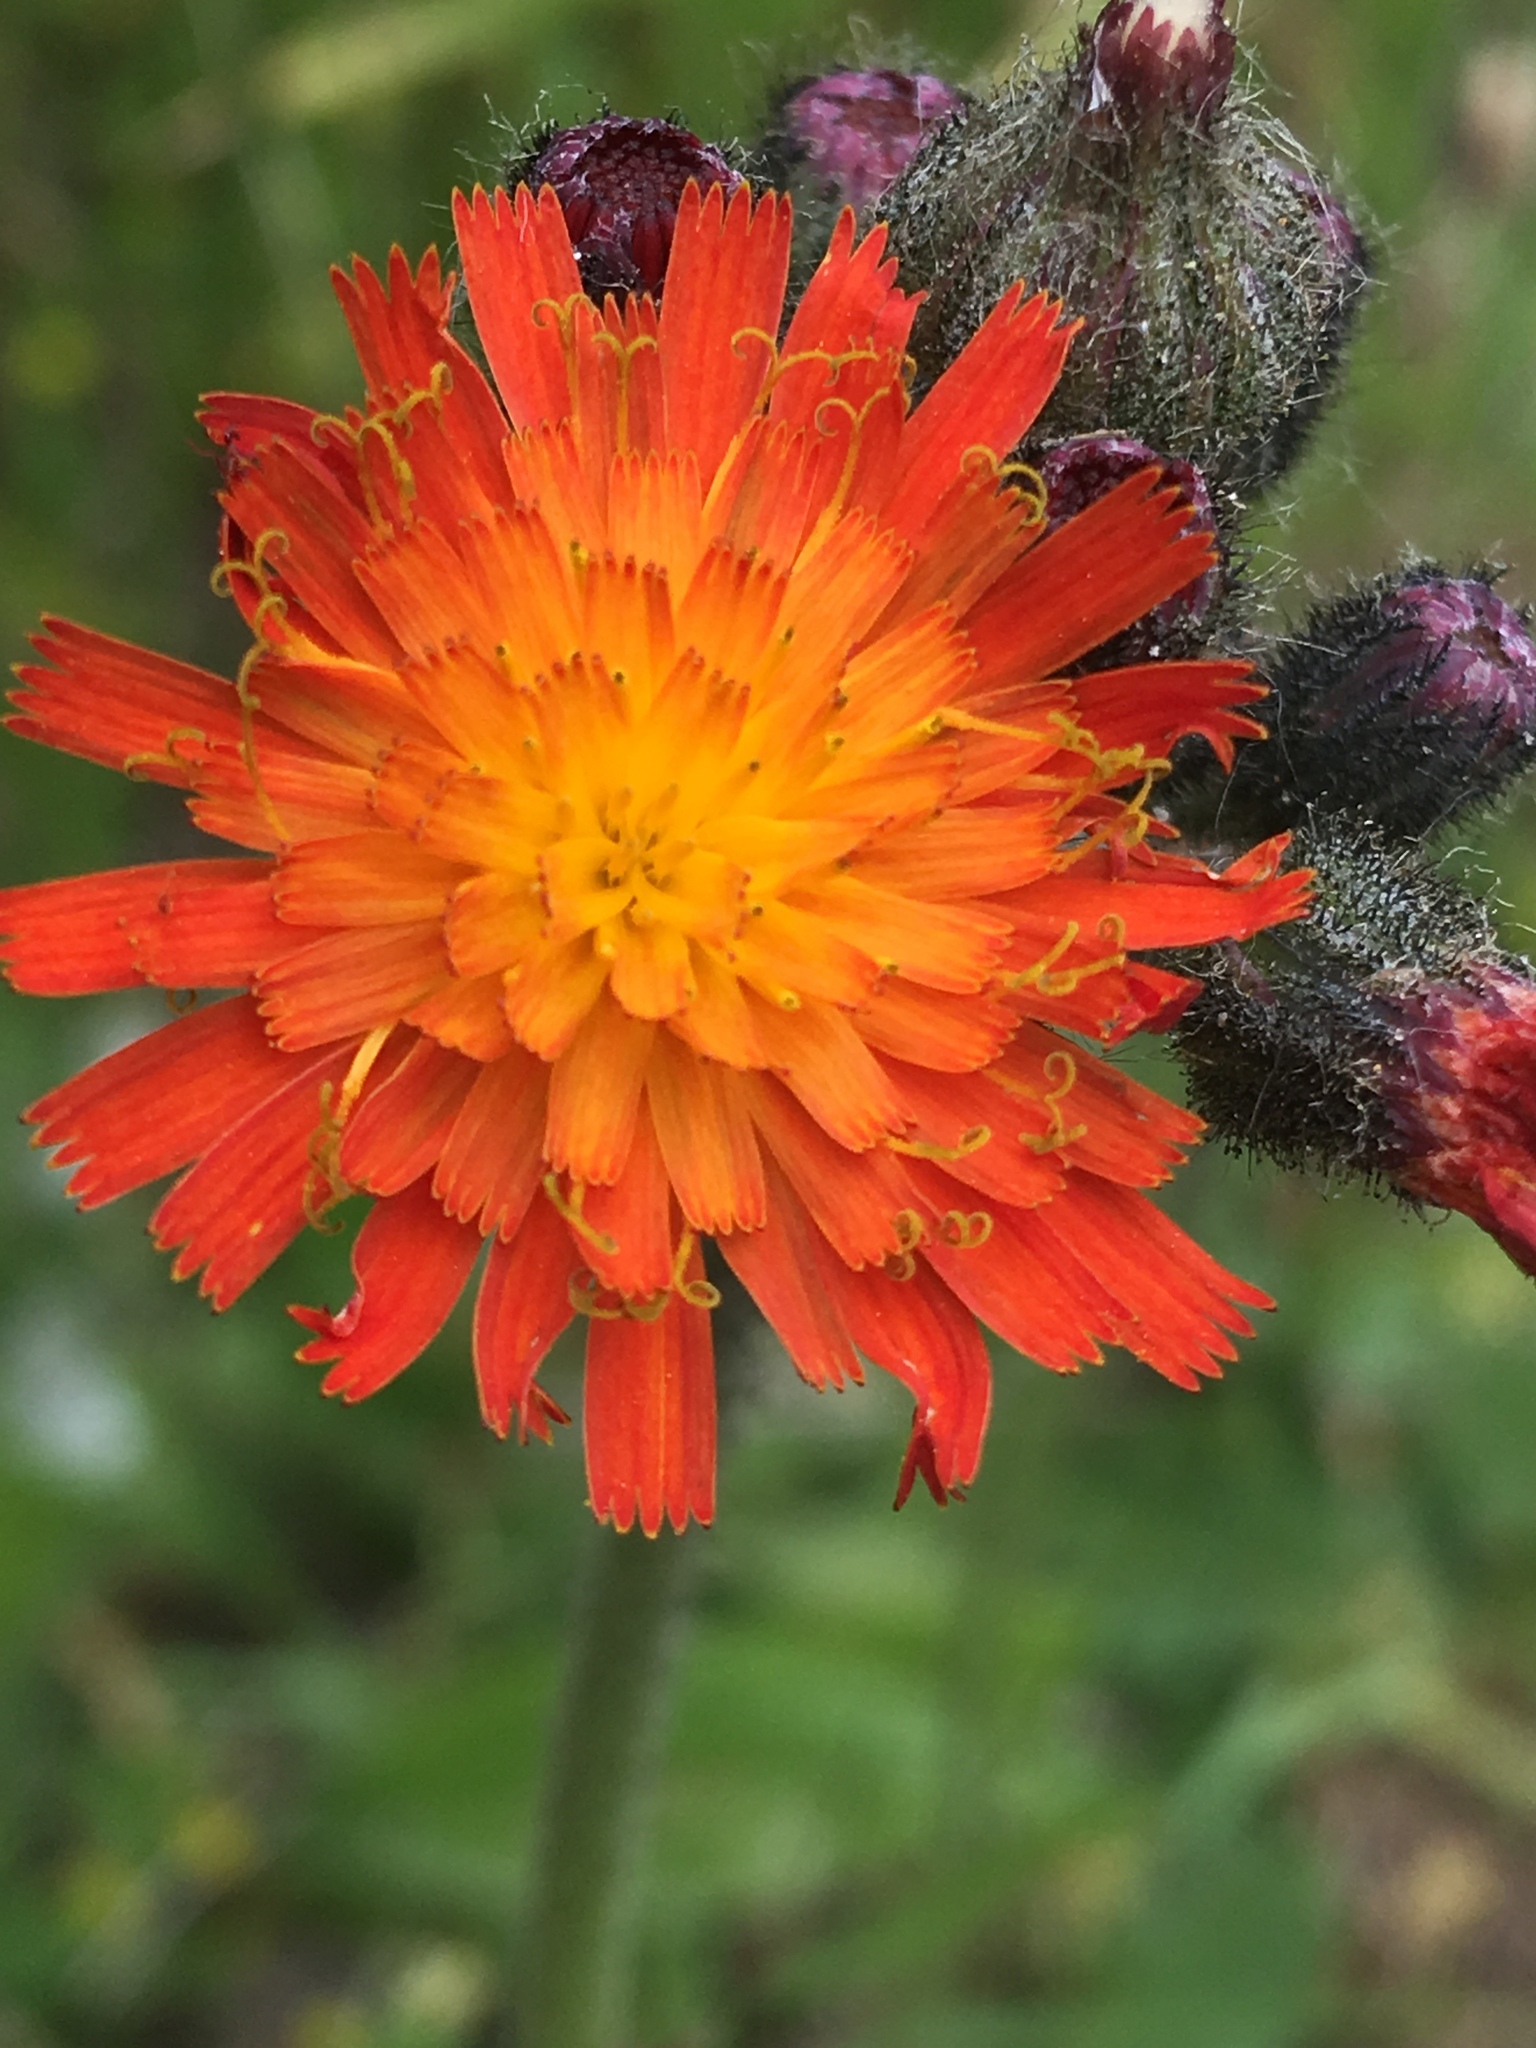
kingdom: Plantae
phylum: Tracheophyta
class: Magnoliopsida
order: Asterales
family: Asteraceae
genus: Pilosella
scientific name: Pilosella aurantiaca
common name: Fox-and-cubs
